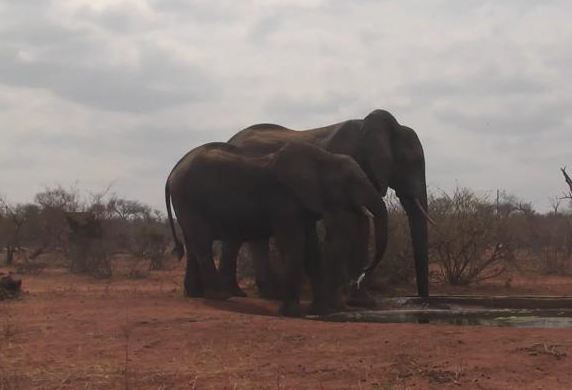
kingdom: Animalia
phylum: Chordata
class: Mammalia
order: Proboscidea
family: Elephantidae
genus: Loxodonta
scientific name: Loxodonta africana
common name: African elephant
